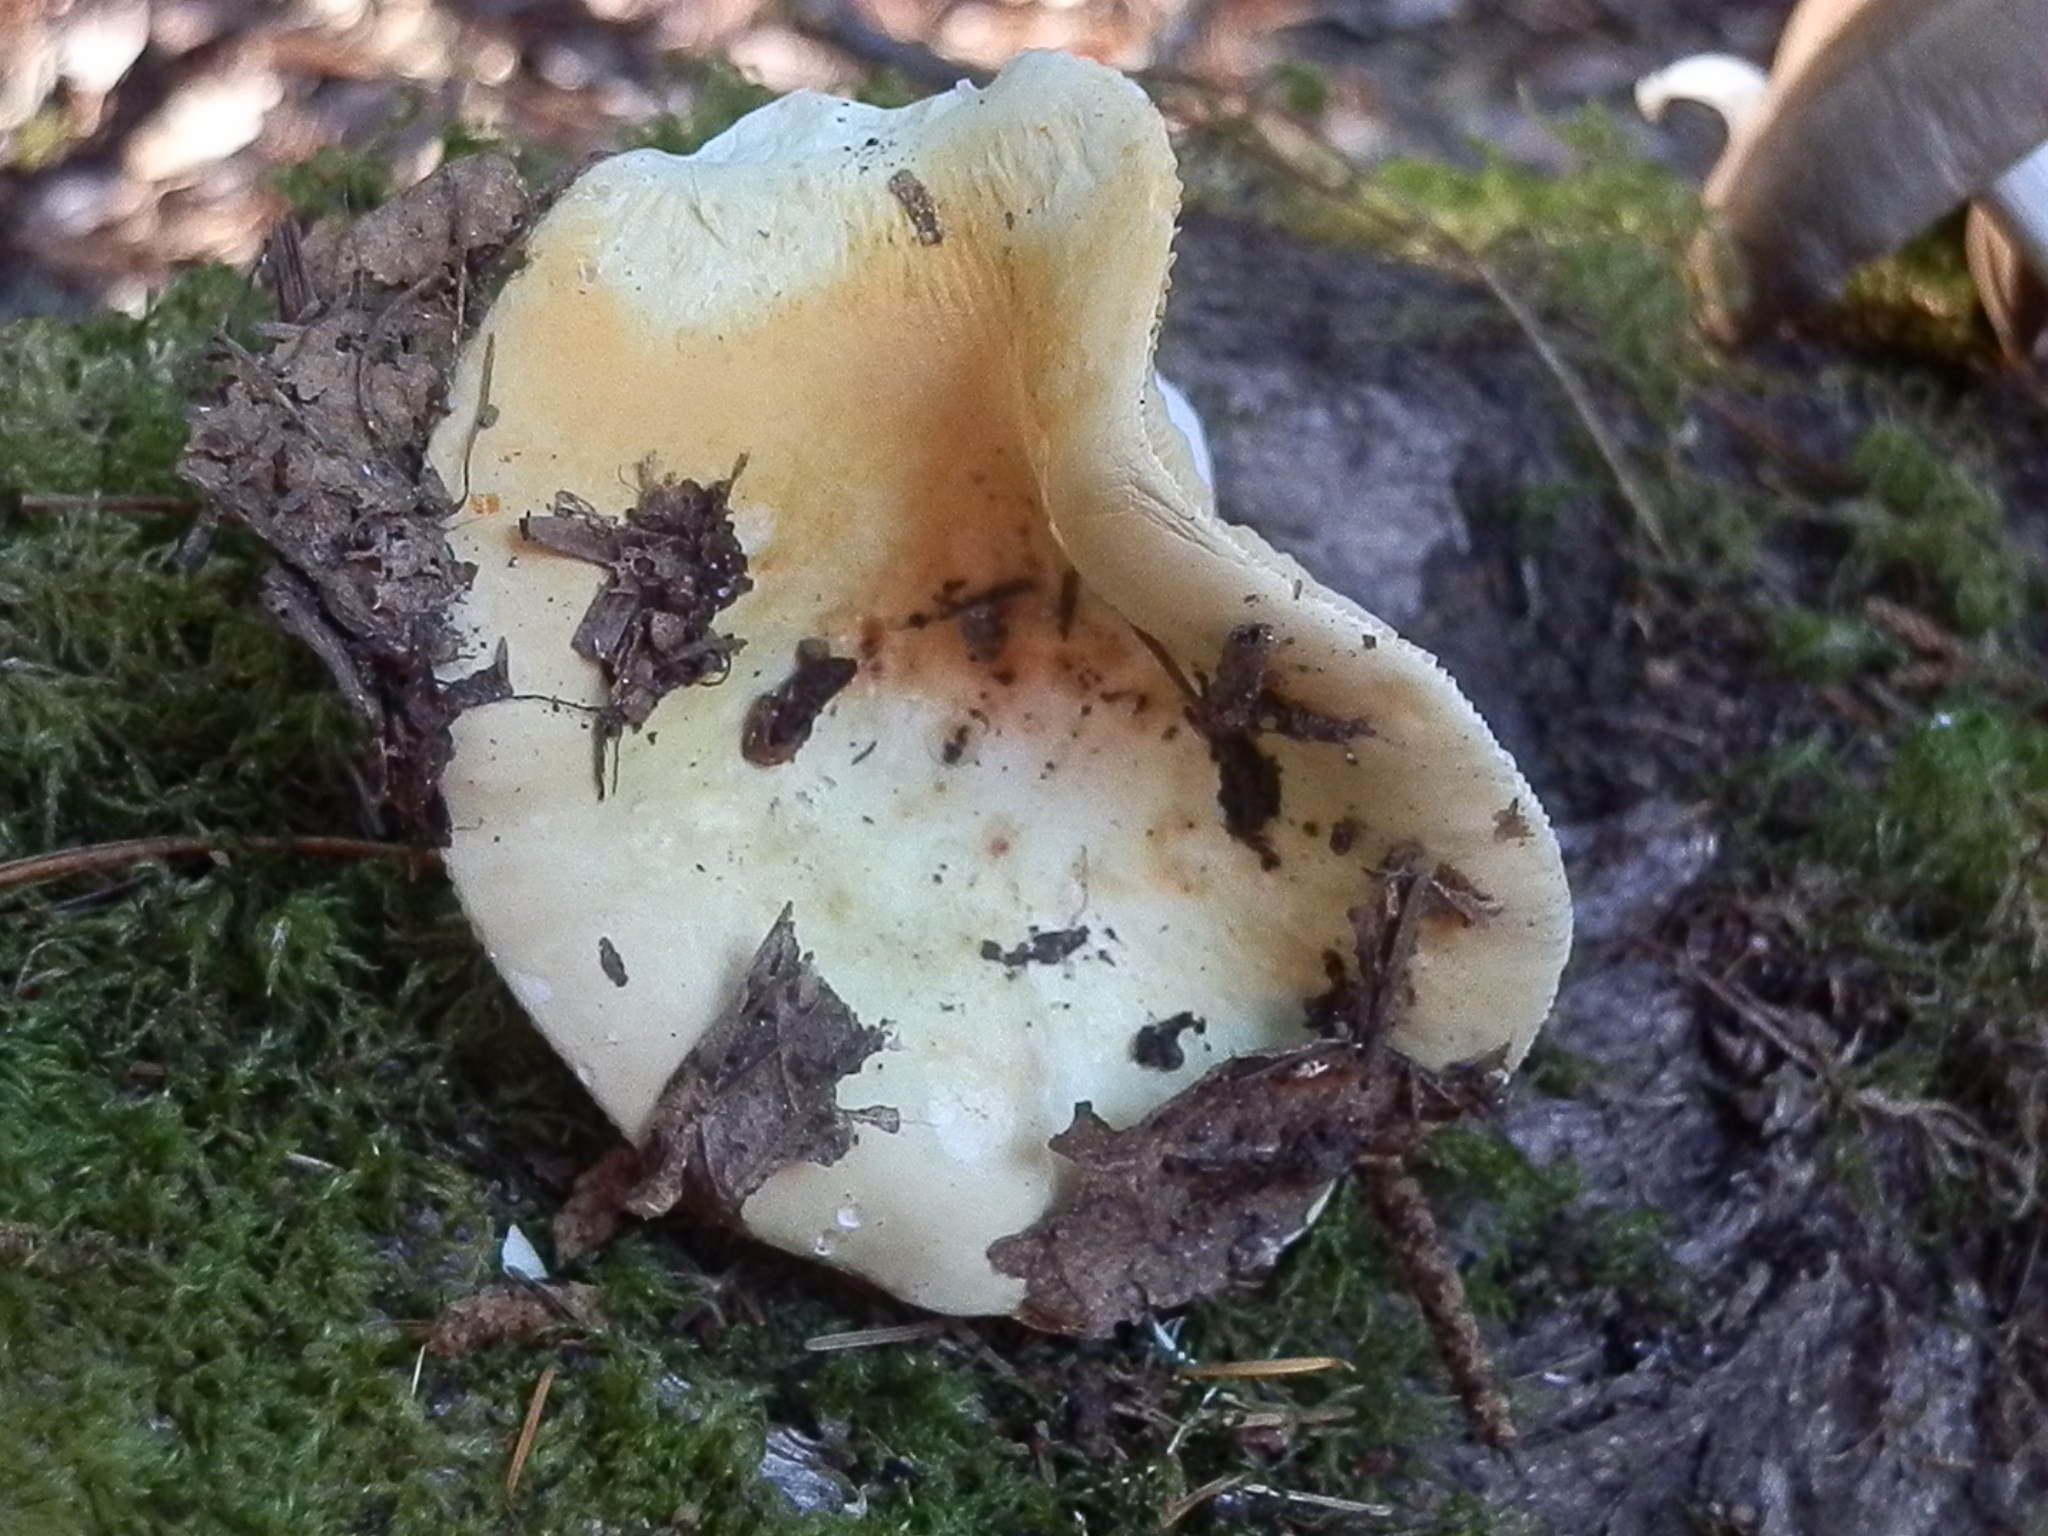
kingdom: Fungi
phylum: Basidiomycota
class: Agaricomycetes
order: Russulales
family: Russulaceae
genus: Russula
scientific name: Russula basifurcata
